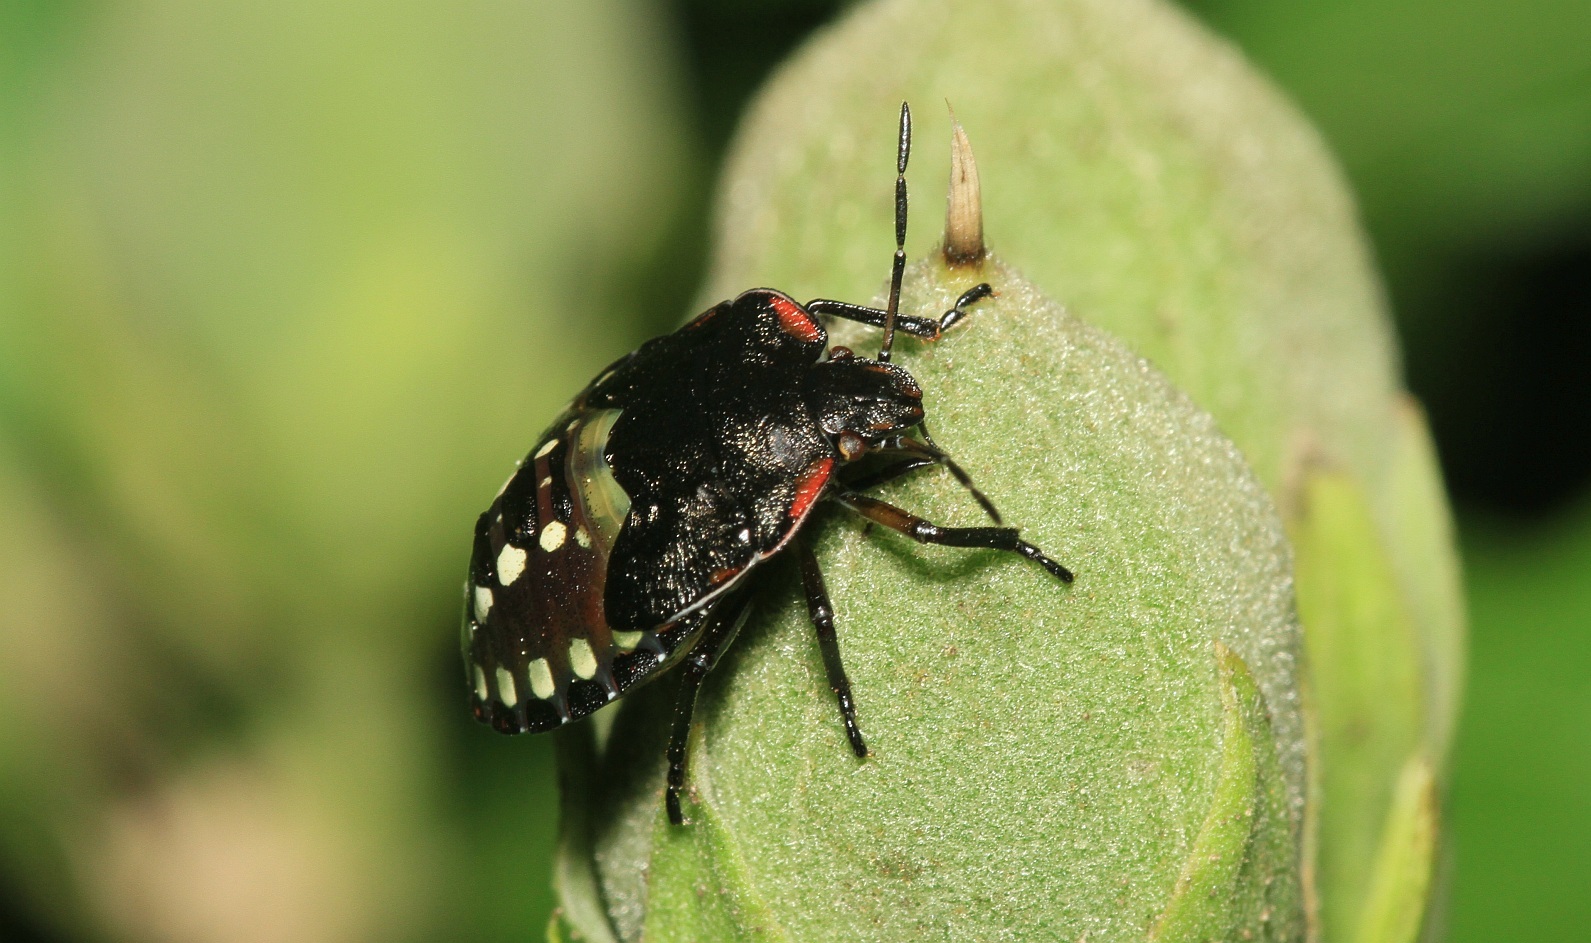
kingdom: Animalia
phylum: Arthropoda
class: Insecta
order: Hemiptera
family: Pentatomidae
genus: Nezara
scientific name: Nezara viridula
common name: Southern green stink bug
